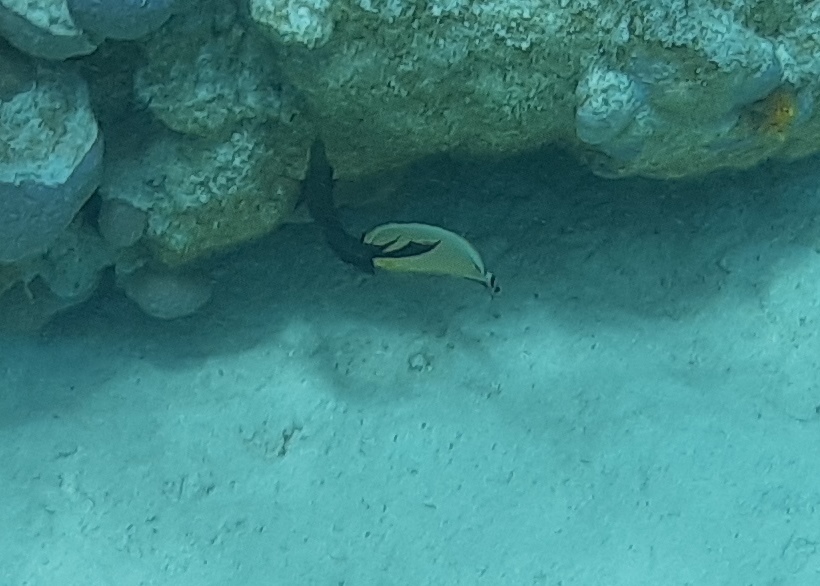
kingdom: Animalia
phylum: Chordata
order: Perciformes
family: Chaetodontidae
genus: Chaetodon
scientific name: Chaetodon lunulatus
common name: Redfin butterflyfish
